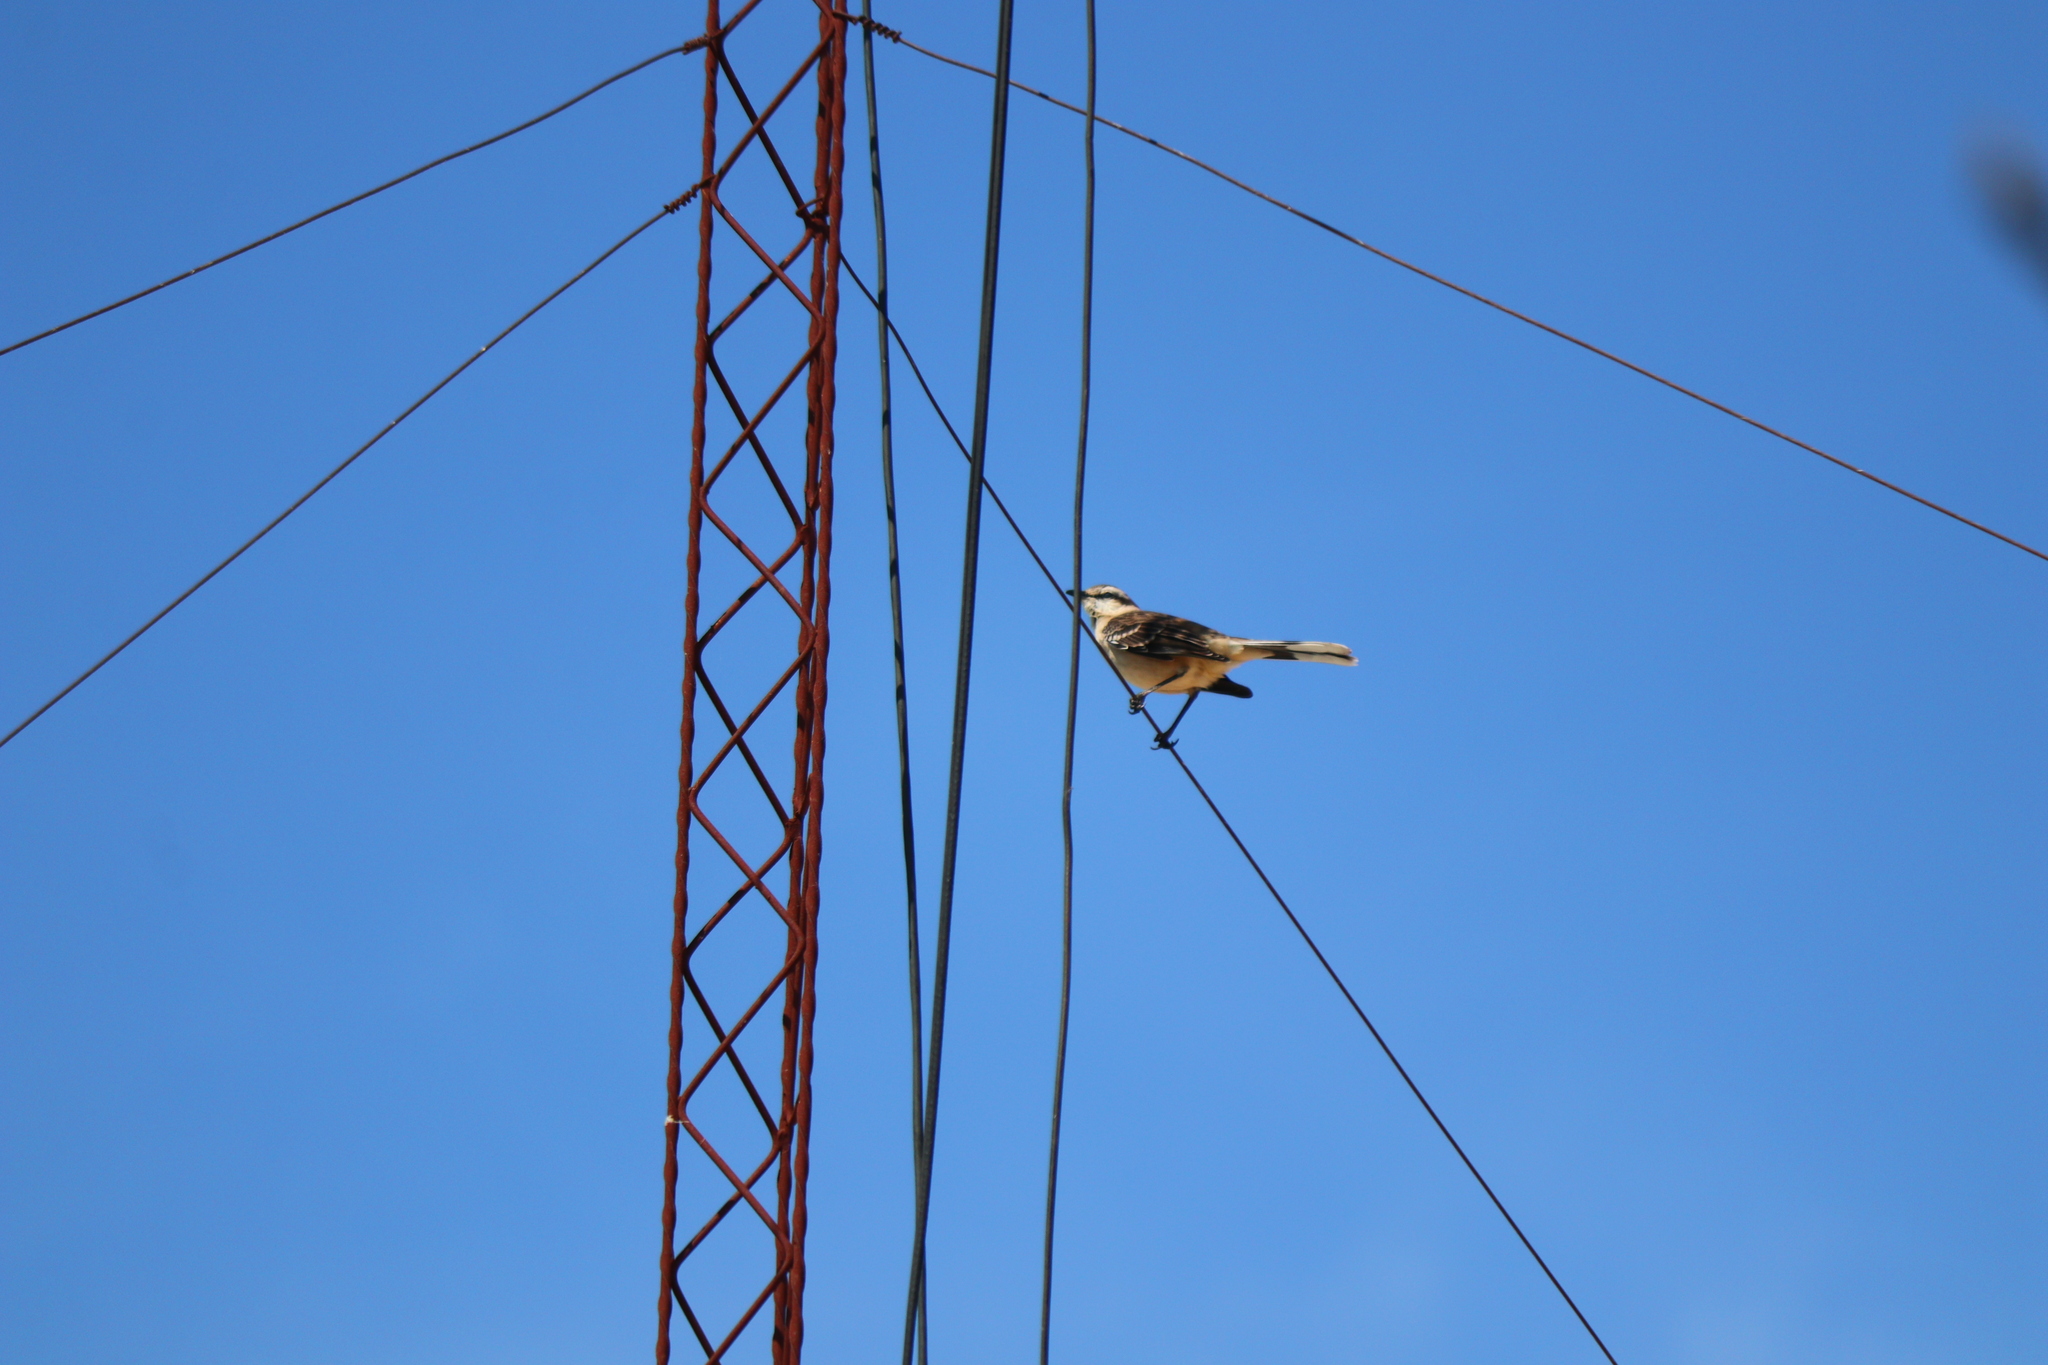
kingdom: Animalia
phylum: Chordata
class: Aves
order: Passeriformes
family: Mimidae
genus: Mimus
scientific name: Mimus saturninus
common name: Chalk-browed mockingbird
